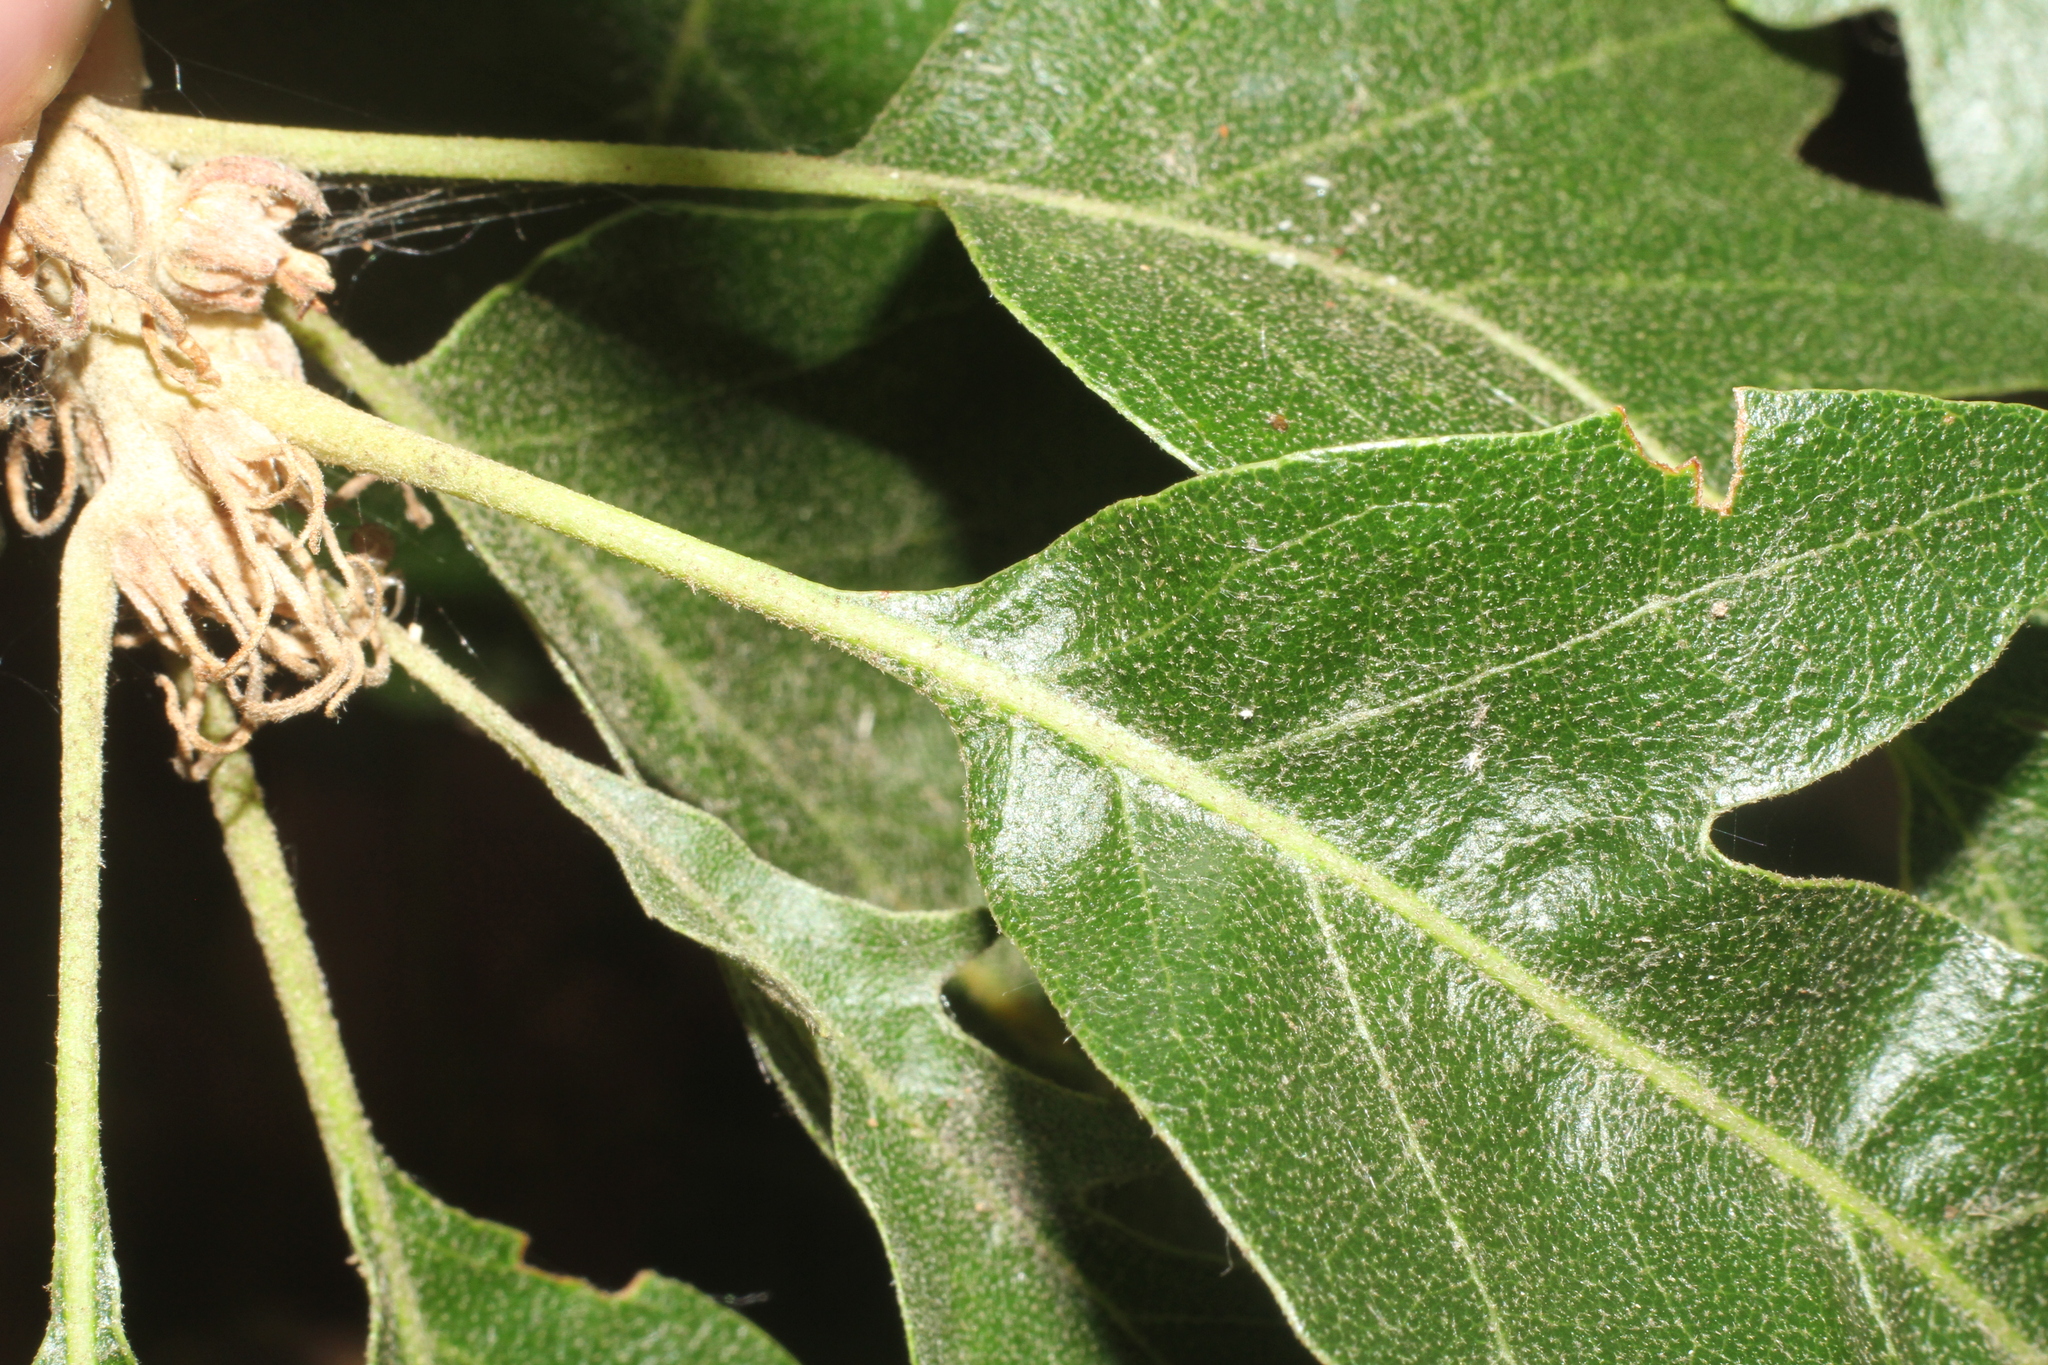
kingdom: Plantae
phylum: Tracheophyta
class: Magnoliopsida
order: Fagales
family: Fagaceae
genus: Quercus
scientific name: Quercus cerris
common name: Turkey oak
